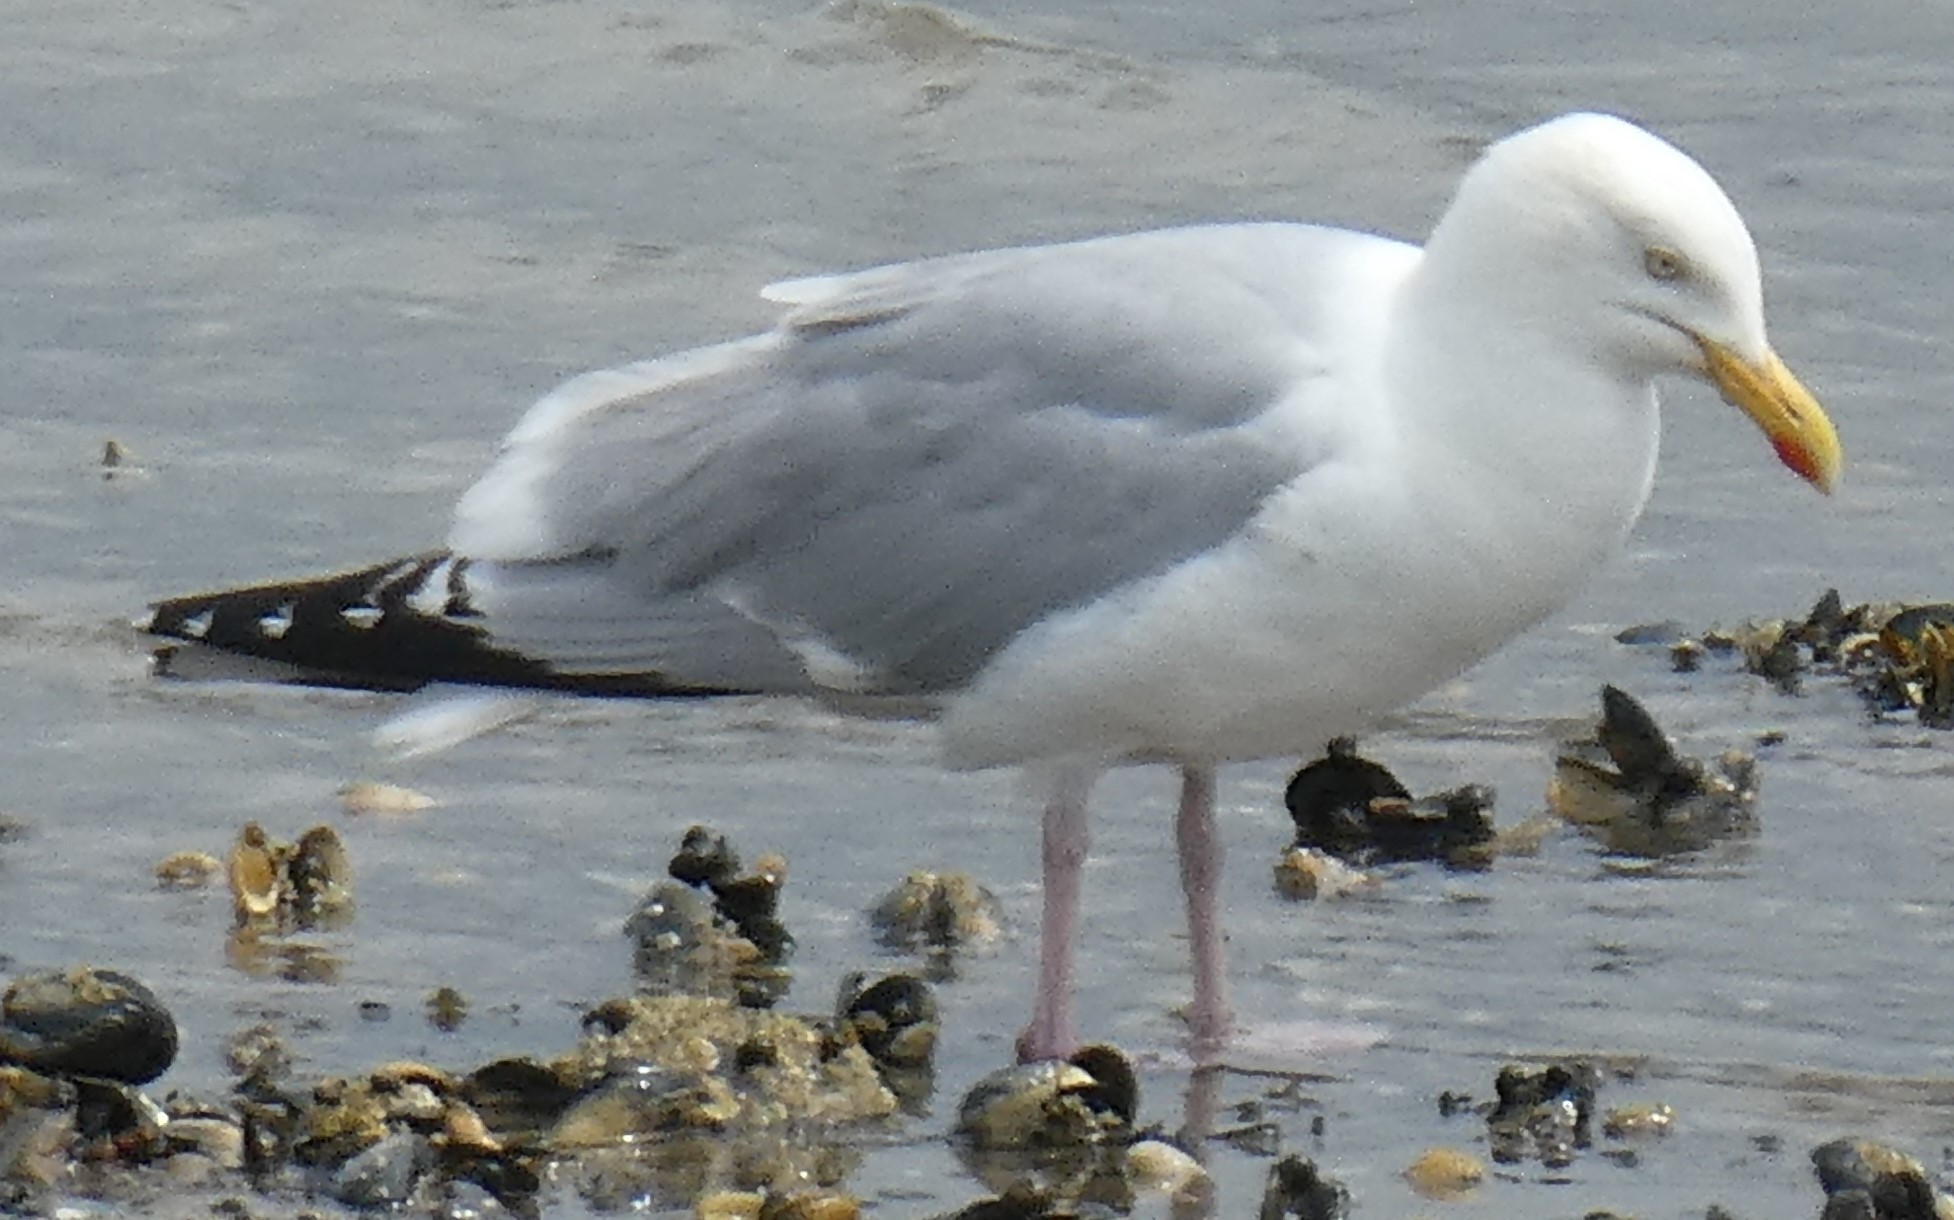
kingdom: Animalia
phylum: Chordata
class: Aves
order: Charadriiformes
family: Laridae
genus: Larus
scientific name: Larus argentatus
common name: Herring gull
